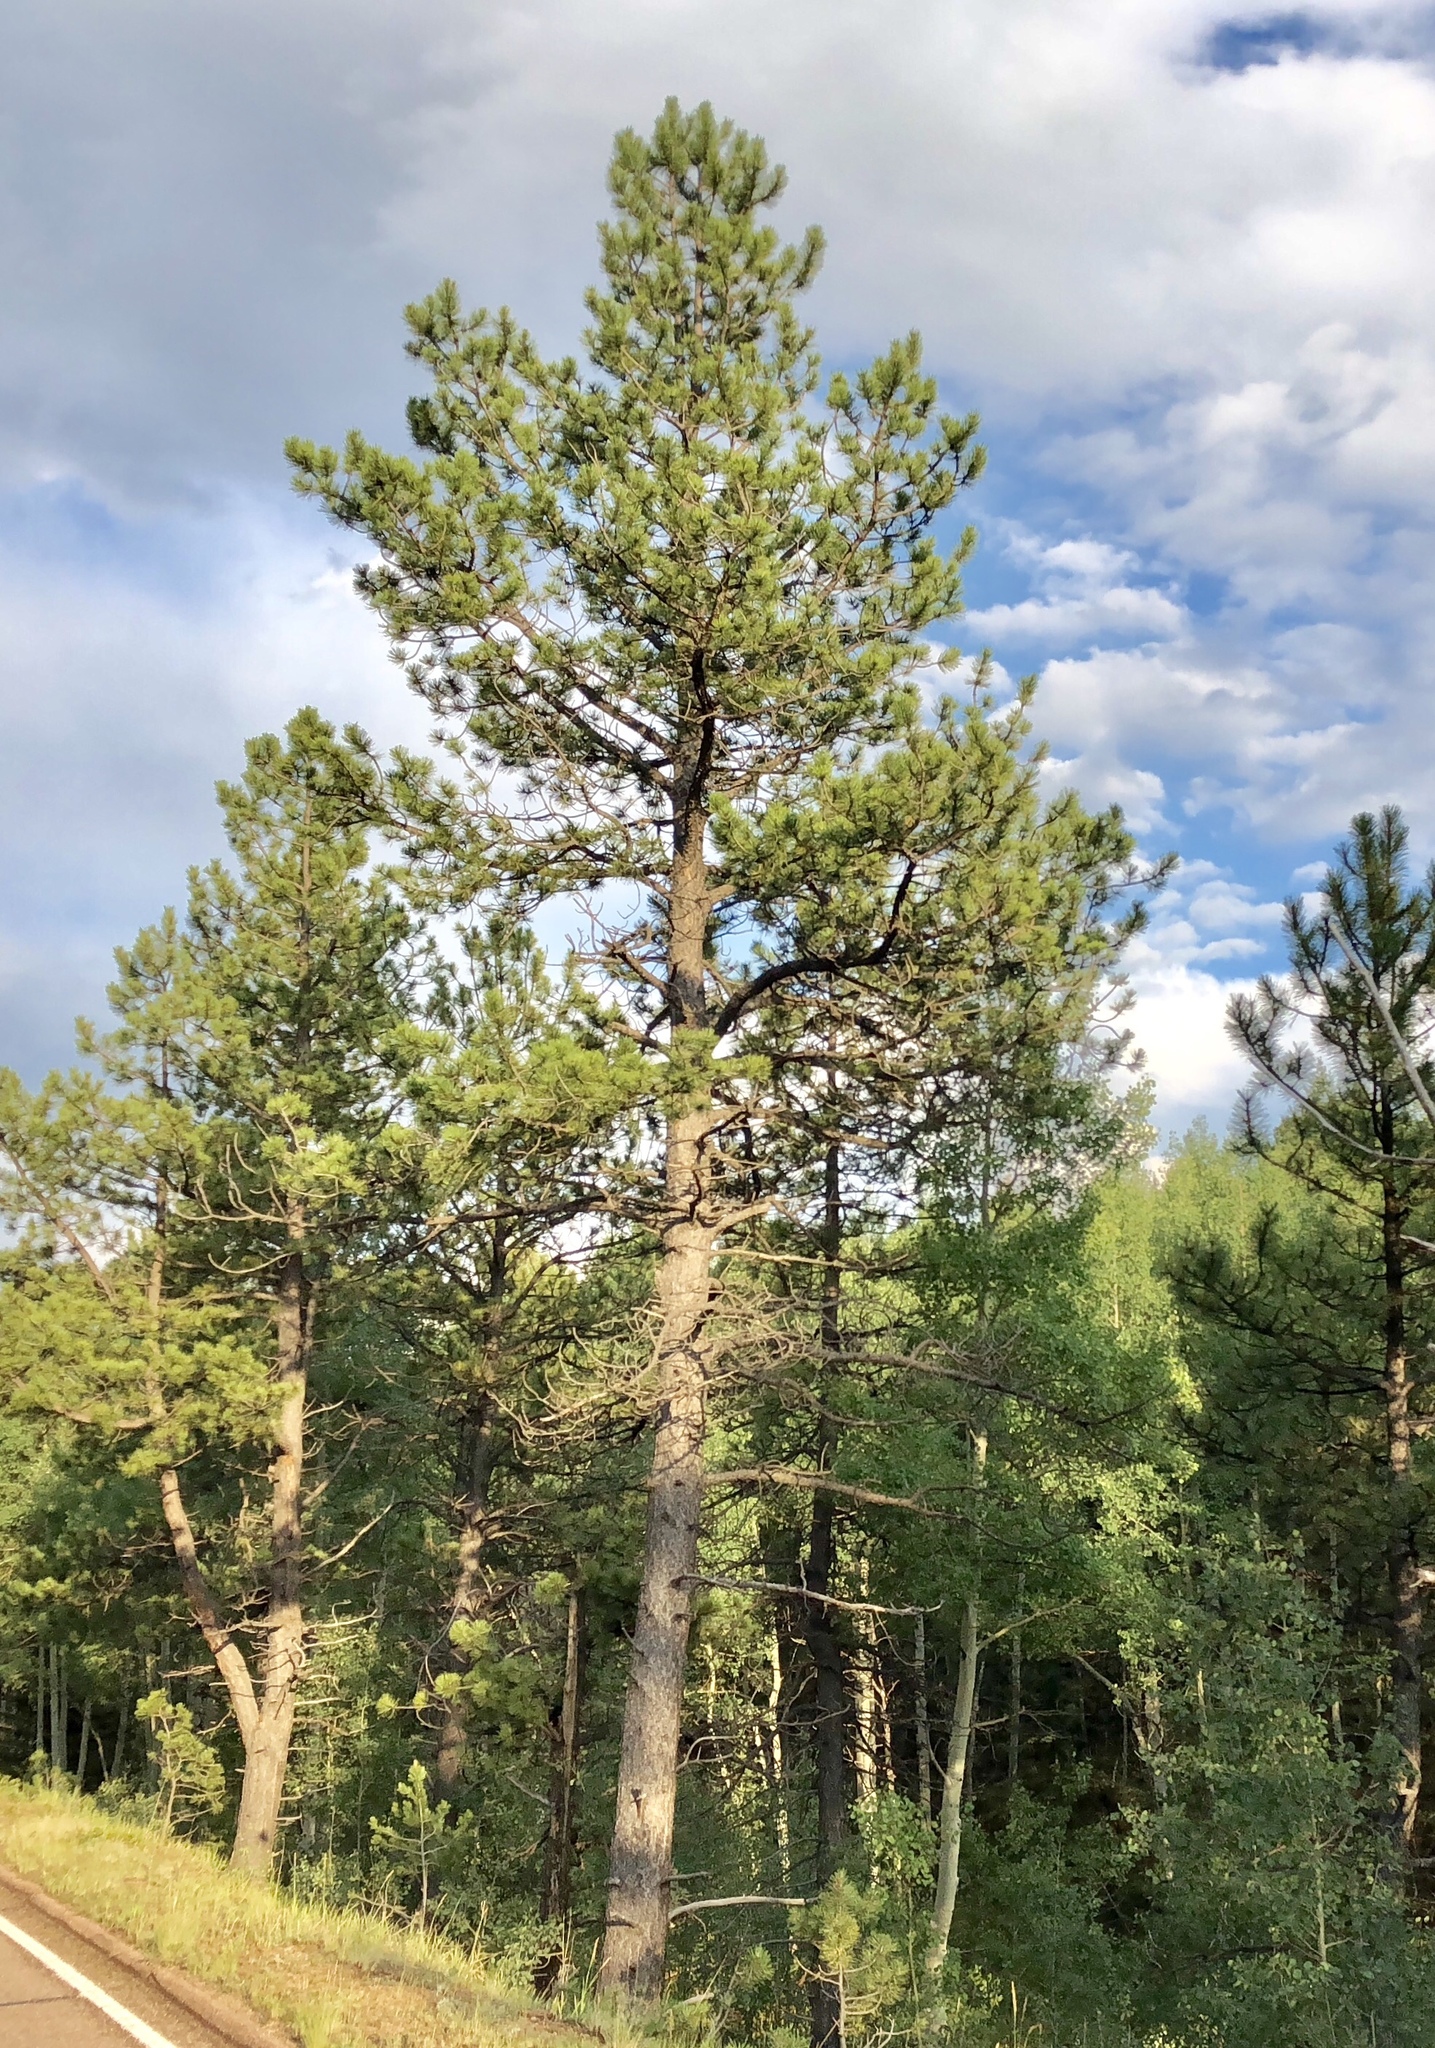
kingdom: Plantae
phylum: Tracheophyta
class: Pinopsida
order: Pinales
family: Pinaceae
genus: Pinus
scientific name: Pinus ponderosa
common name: Western yellow-pine
